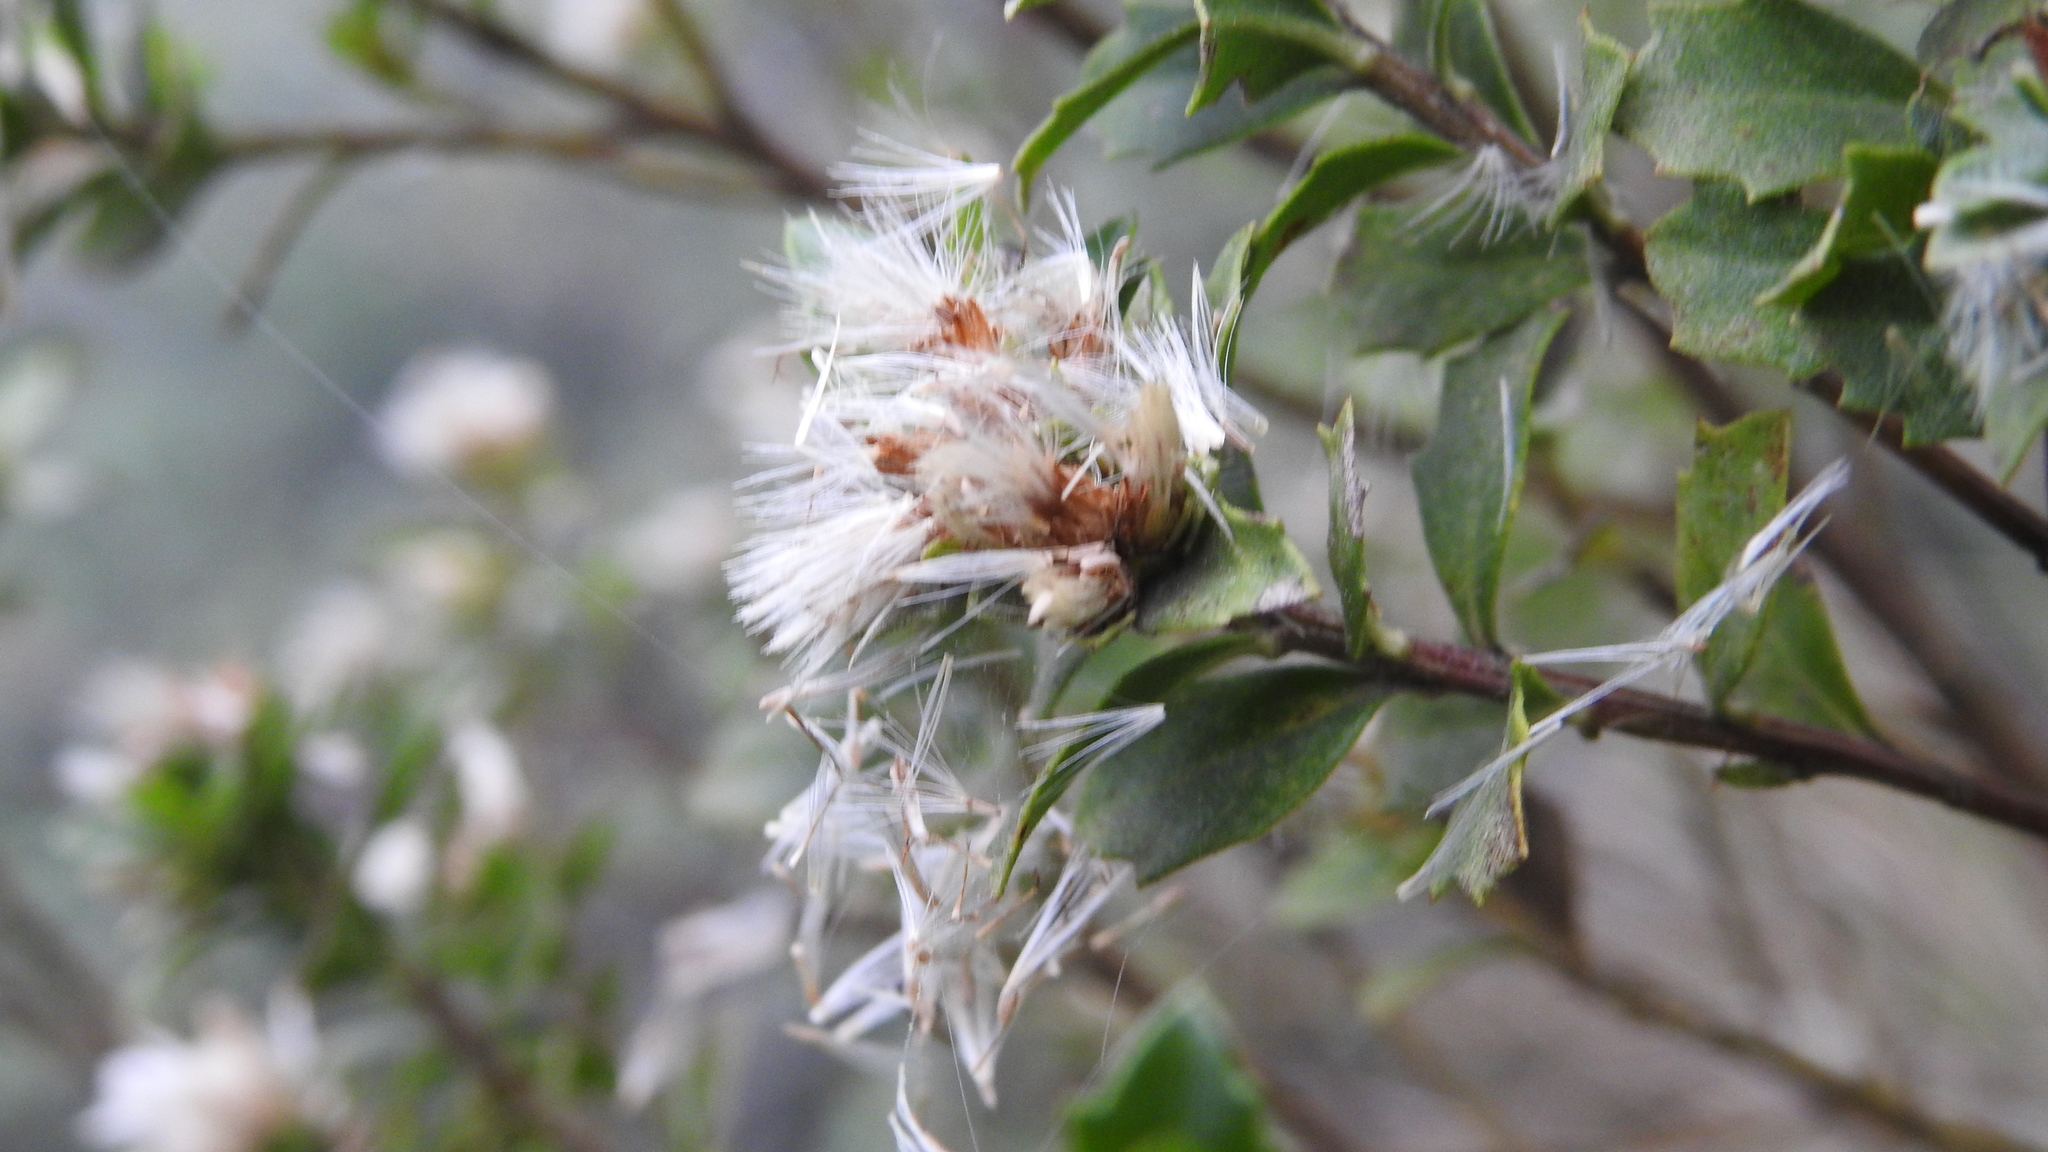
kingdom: Plantae
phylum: Tracheophyta
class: Magnoliopsida
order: Asterales
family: Asteraceae
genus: Baccharis
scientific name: Baccharis conferta
